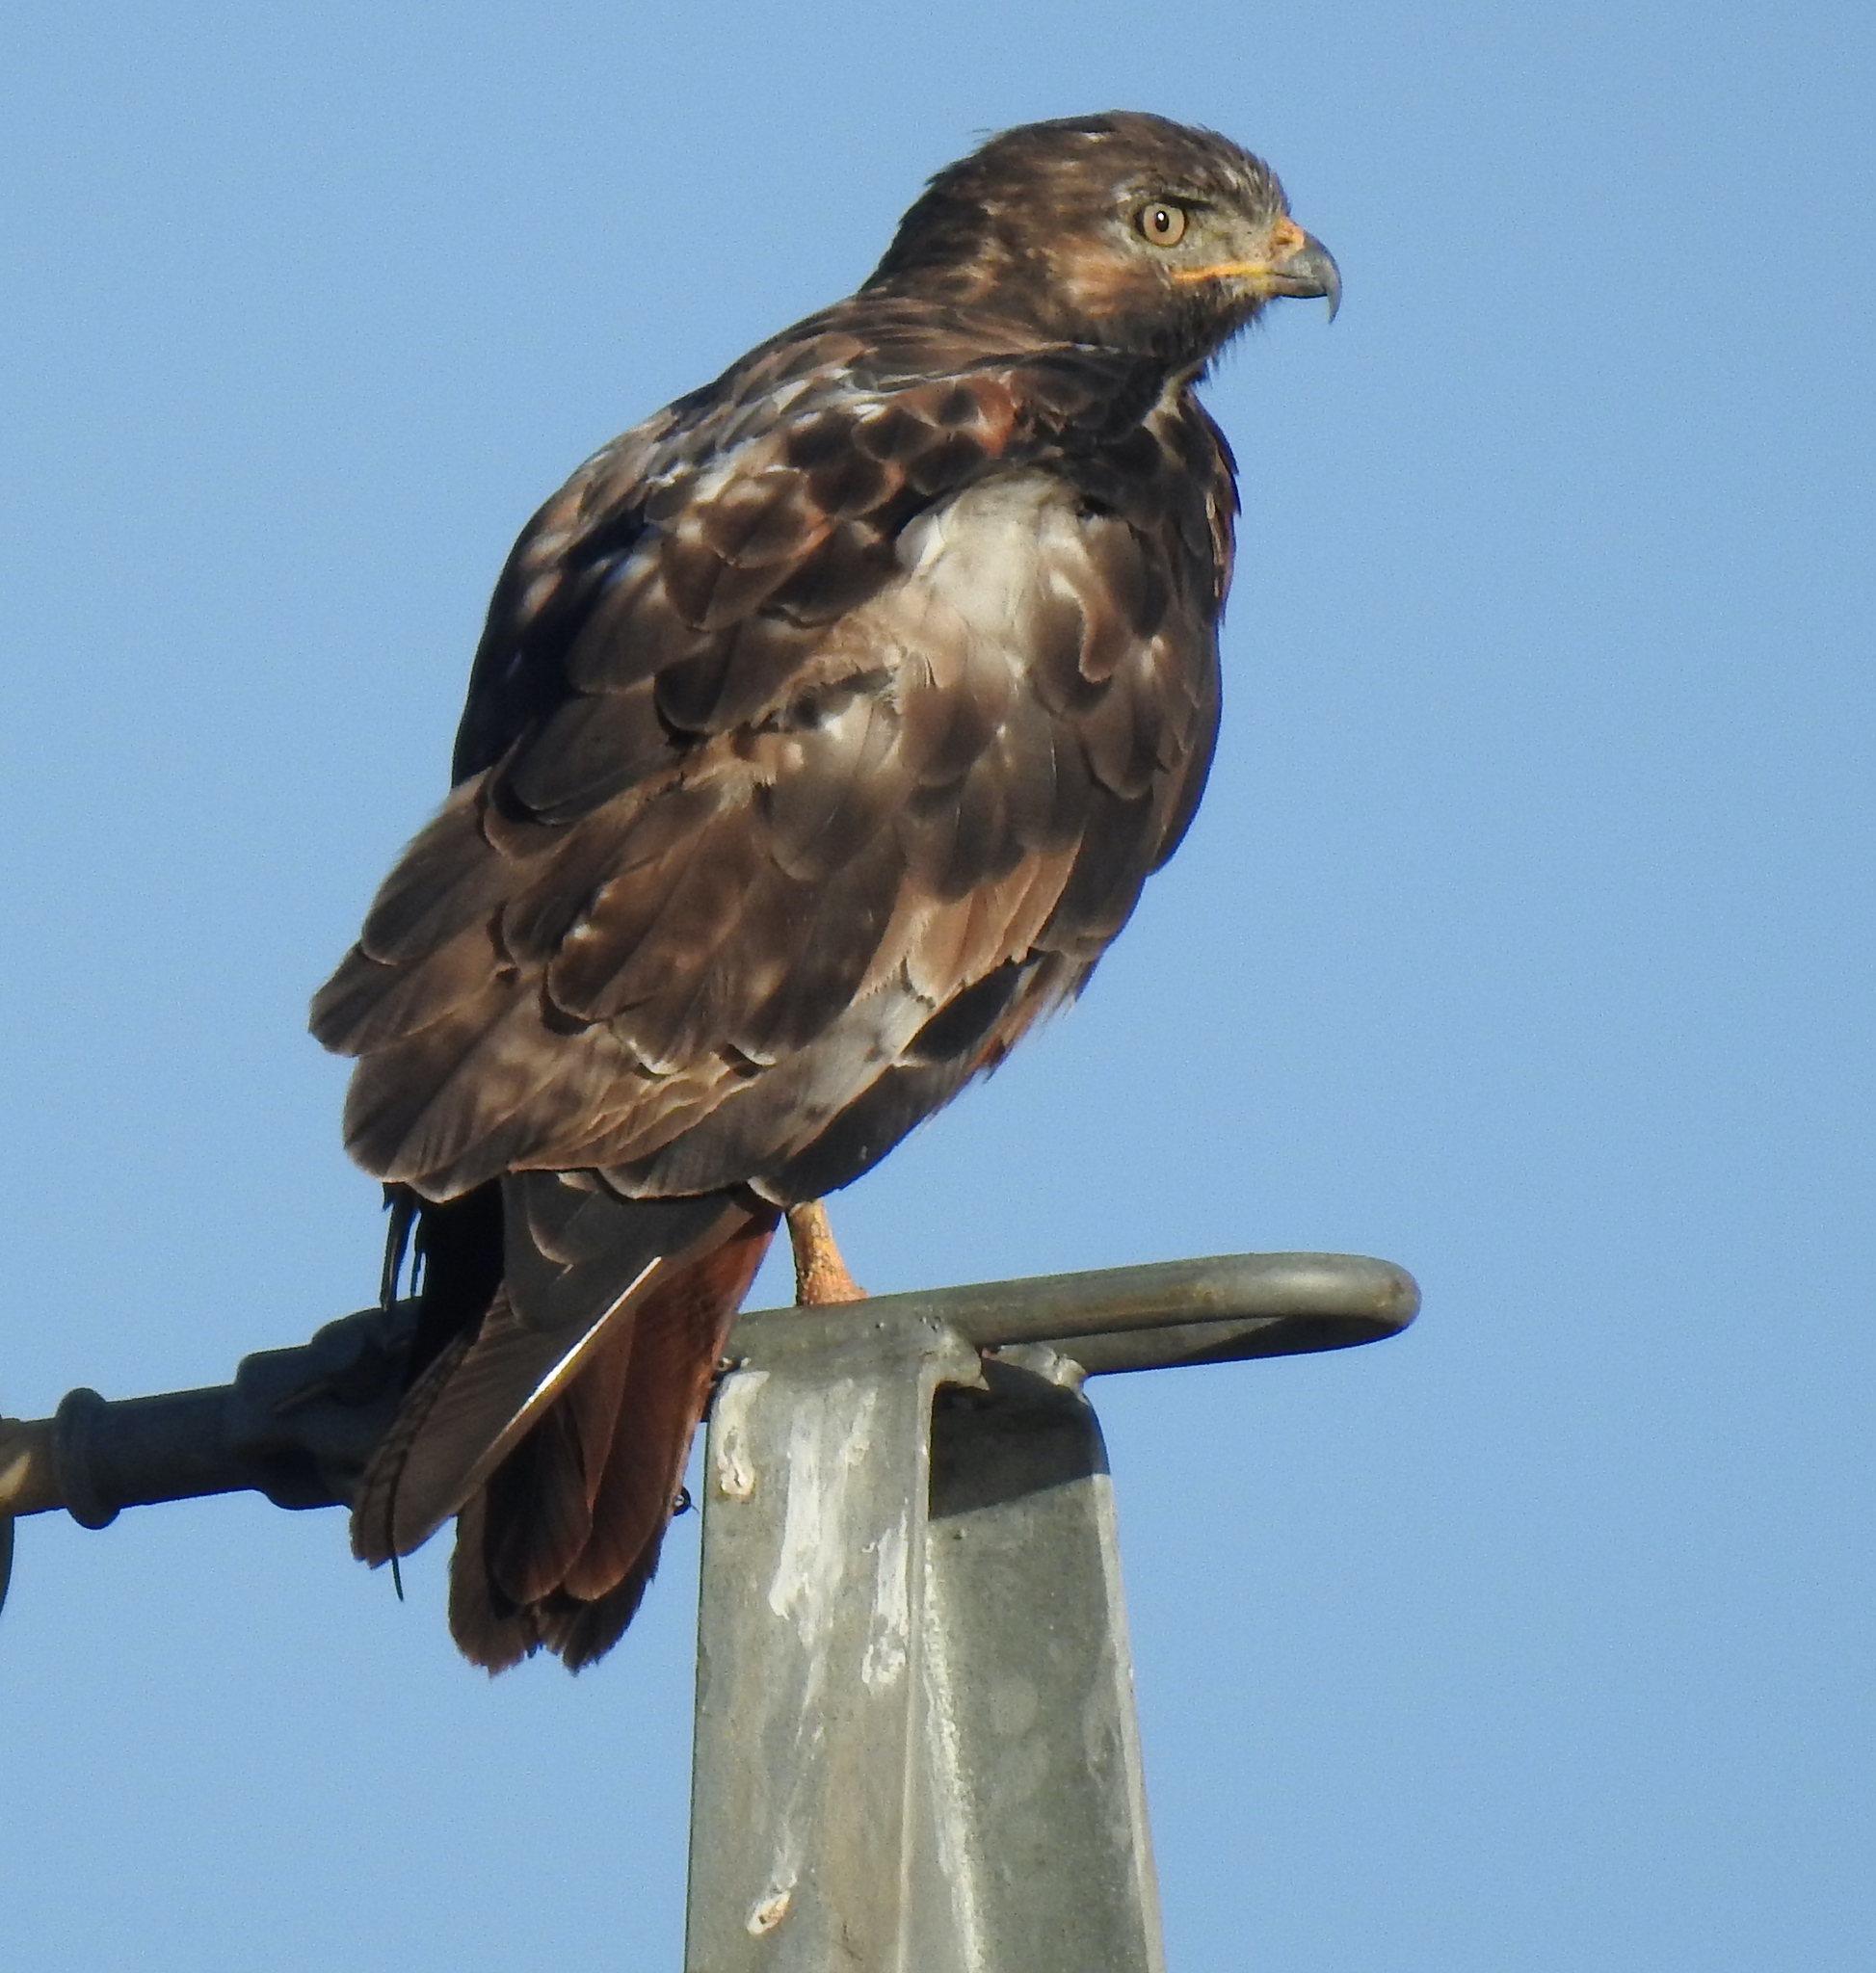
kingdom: Animalia
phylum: Chordata
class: Aves
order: Accipitriformes
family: Accipitridae
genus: Buteo
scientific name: Buteo rufofuscus
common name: Jackal buzzard
